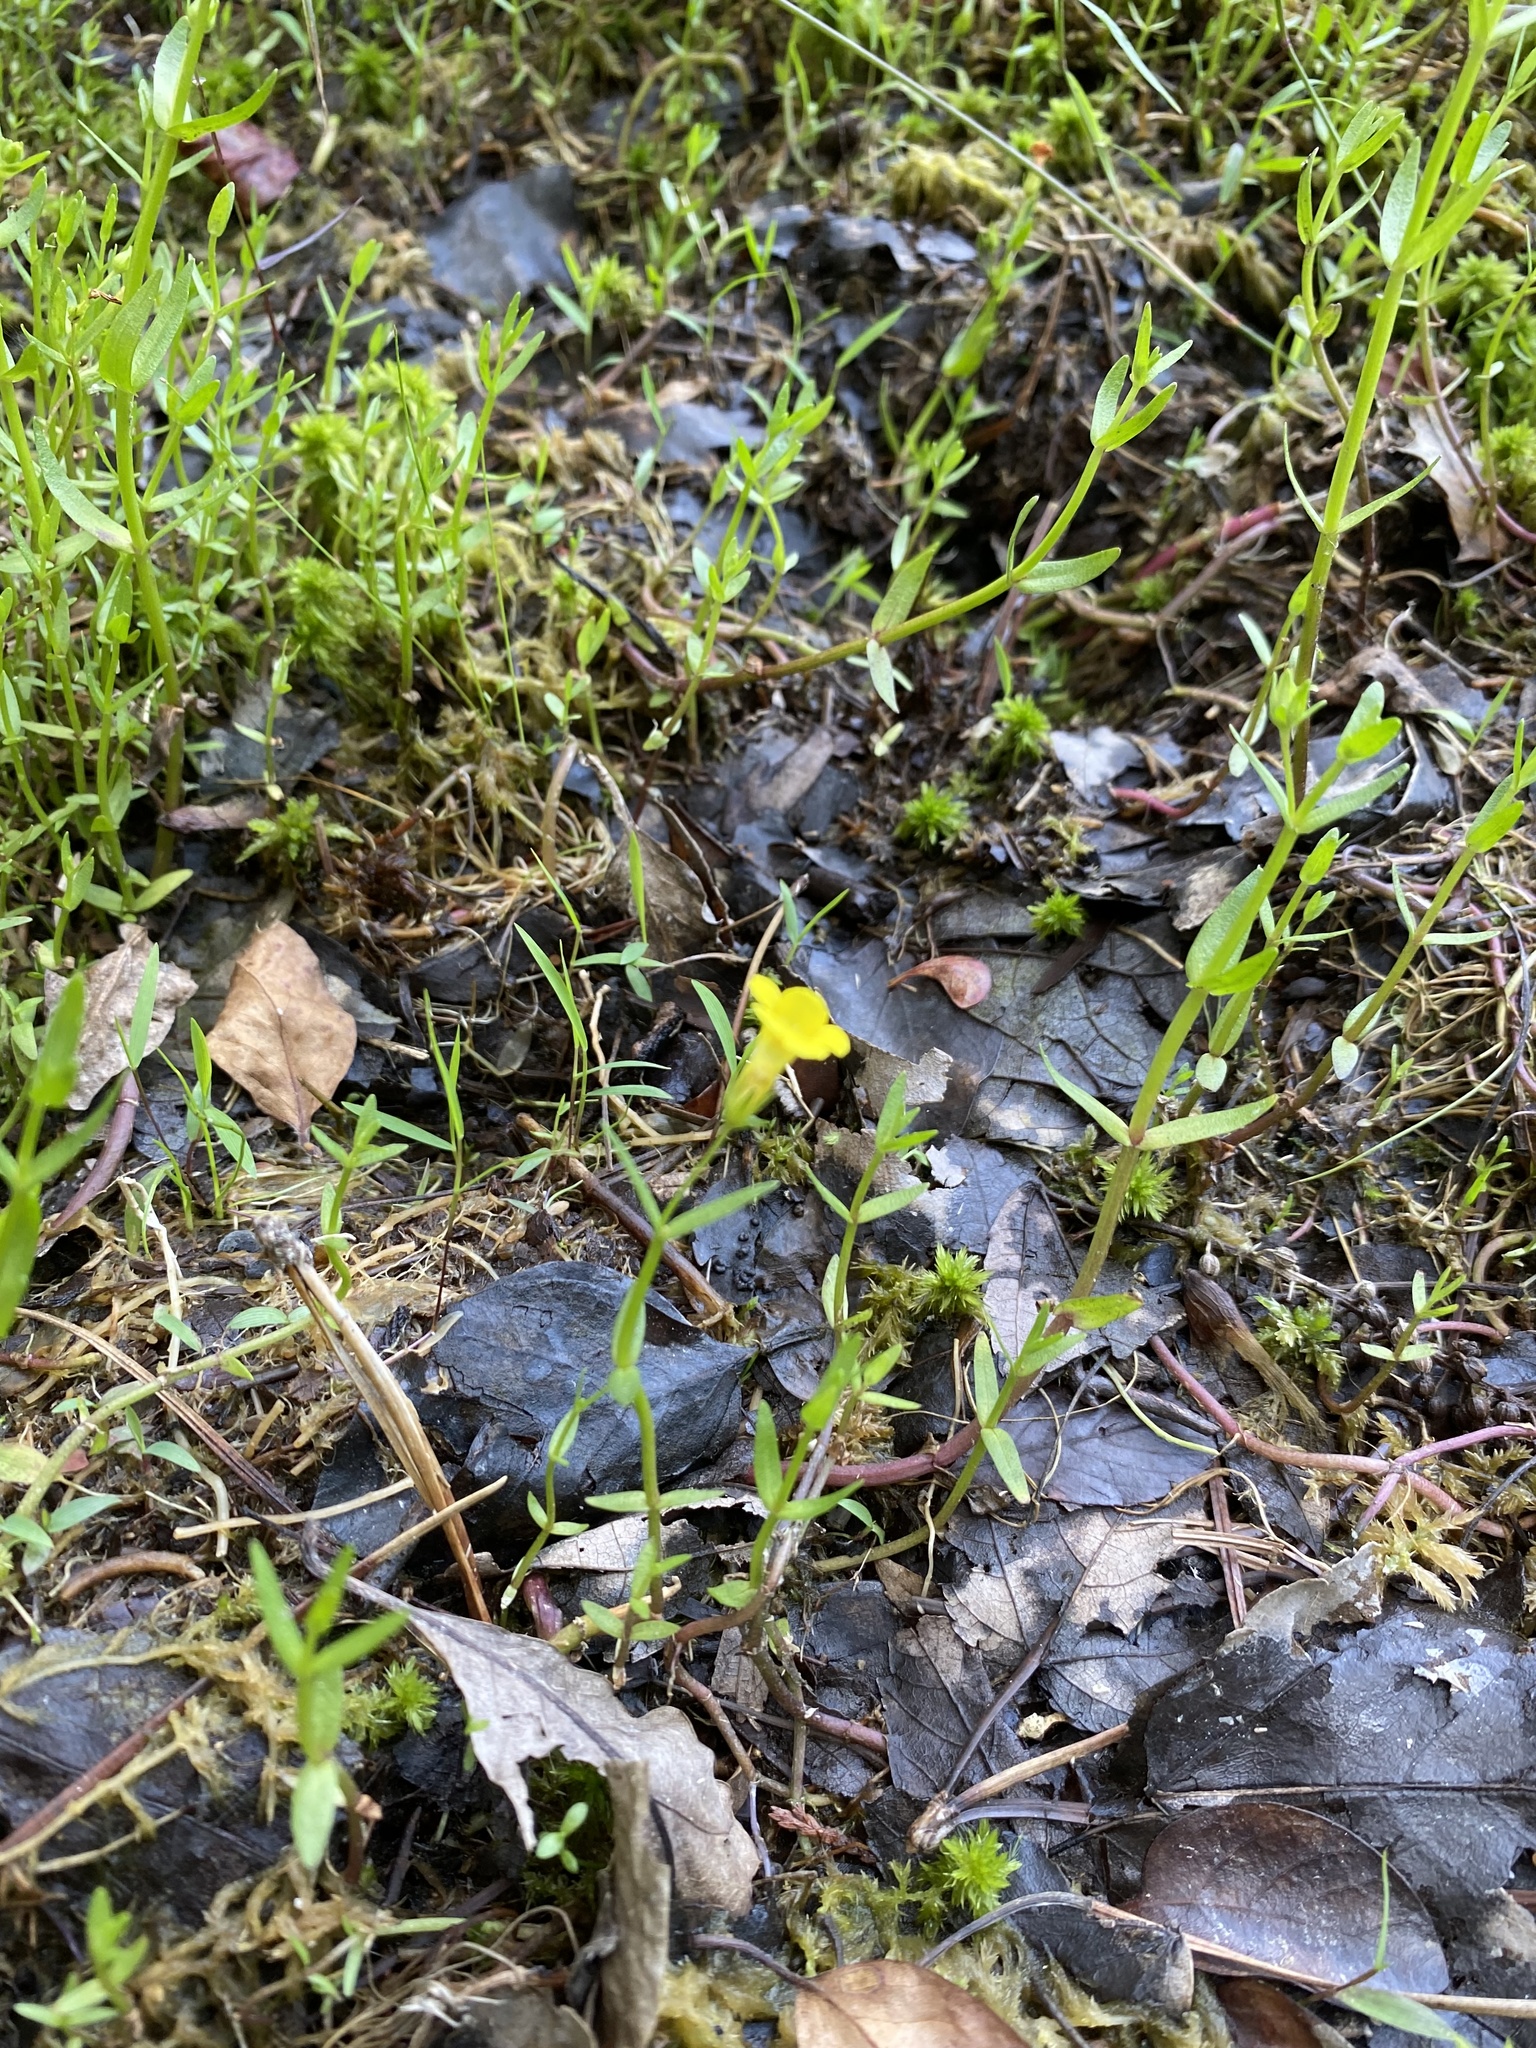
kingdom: Plantae
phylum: Tracheophyta
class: Magnoliopsida
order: Lamiales
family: Plantaginaceae
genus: Gratiola
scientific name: Gratiola lutea
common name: Golden hedge-hyssop
